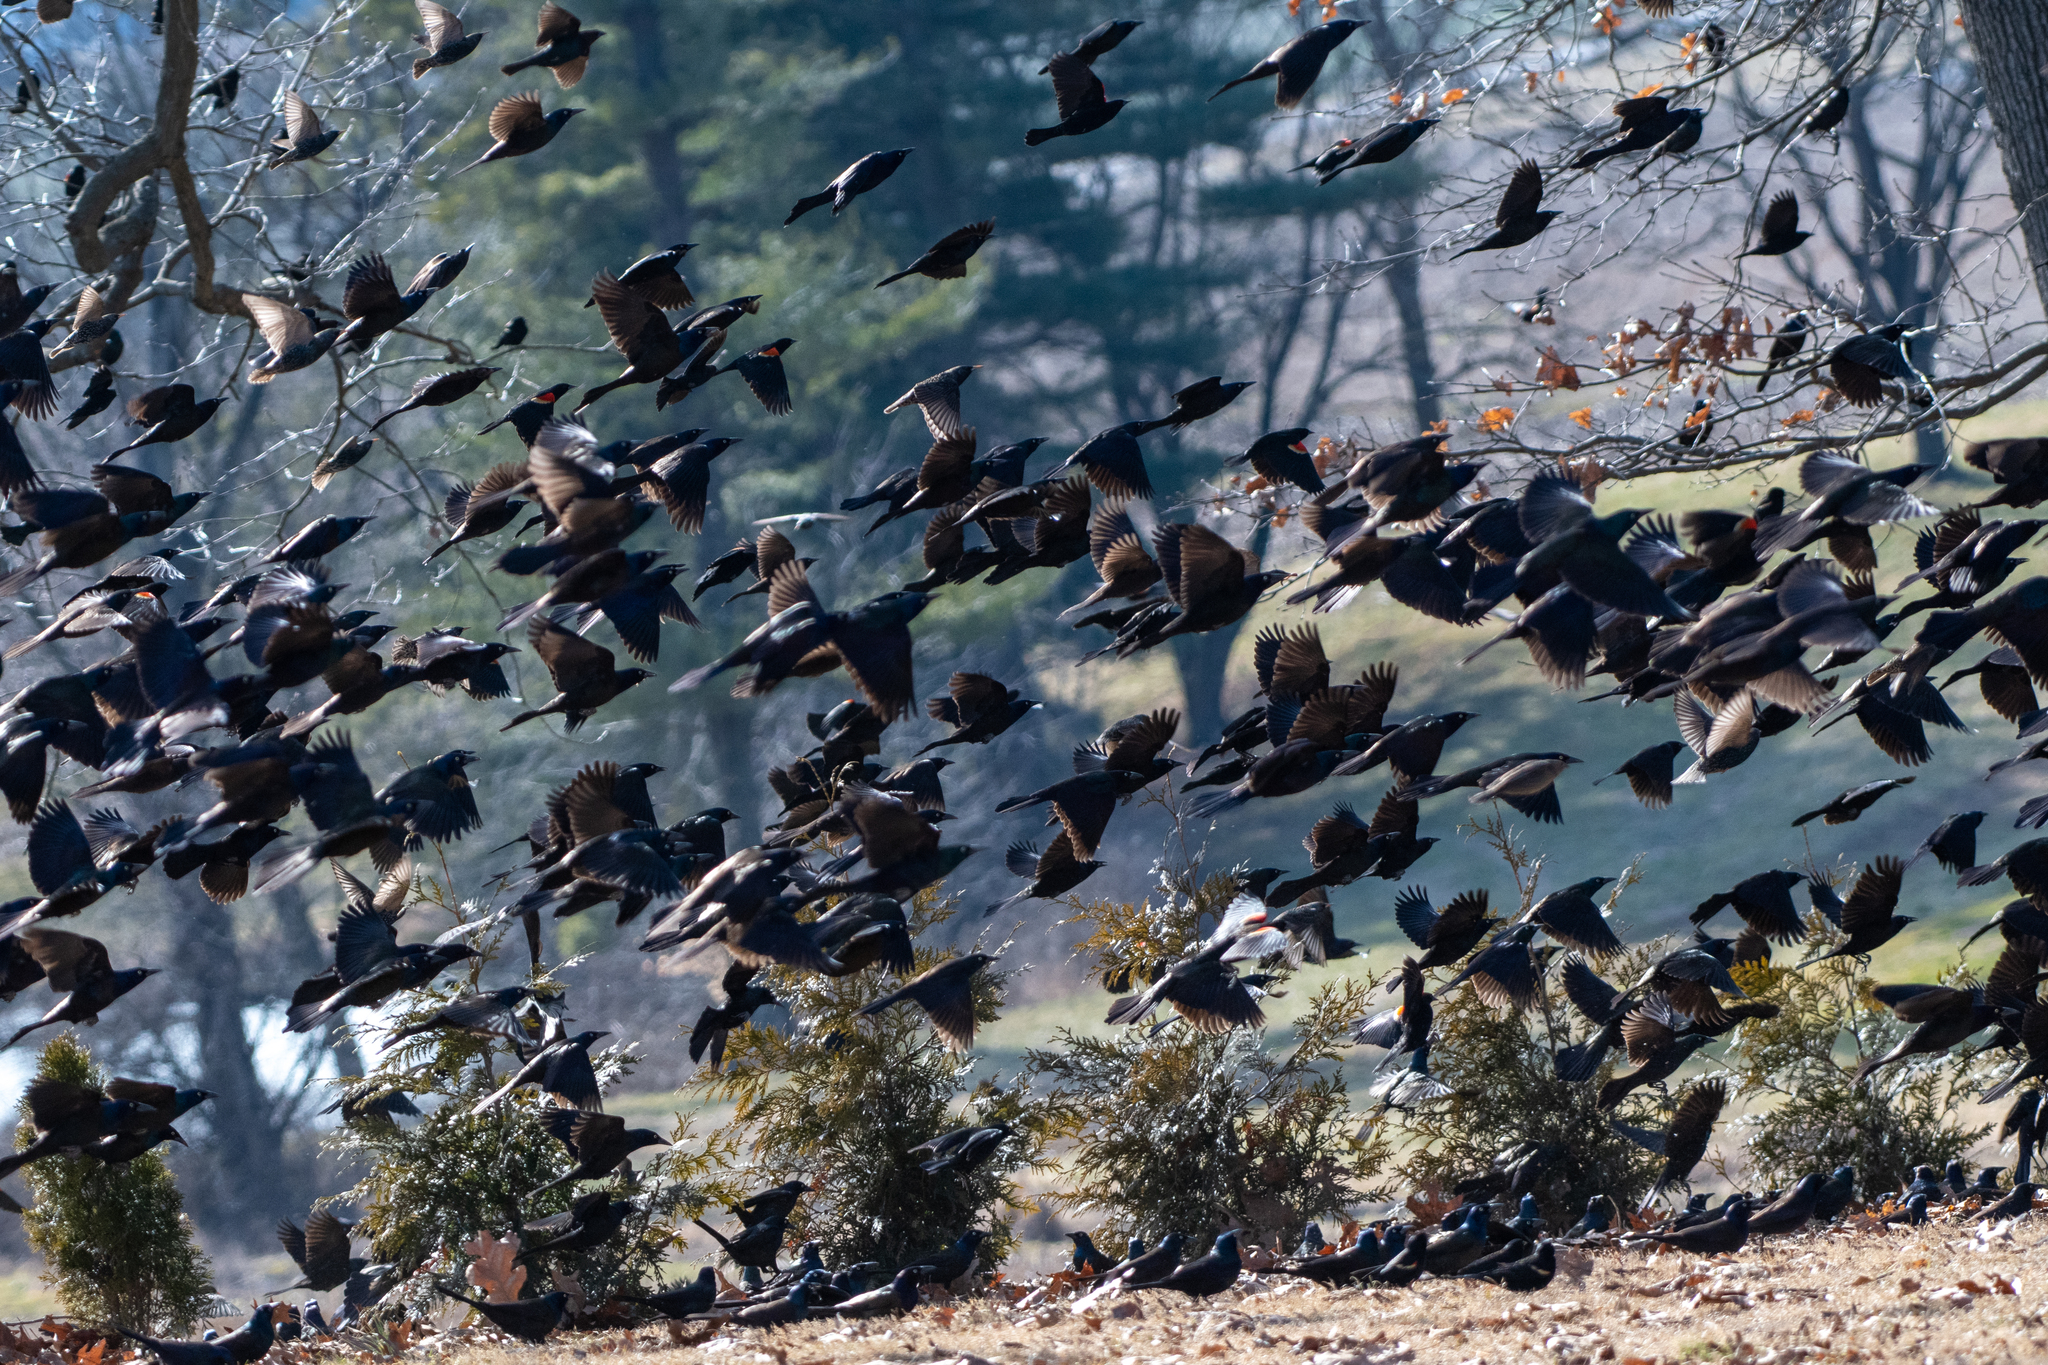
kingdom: Animalia
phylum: Chordata
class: Aves
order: Passeriformes
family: Icteridae
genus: Quiscalus
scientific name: Quiscalus quiscula
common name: Common grackle
